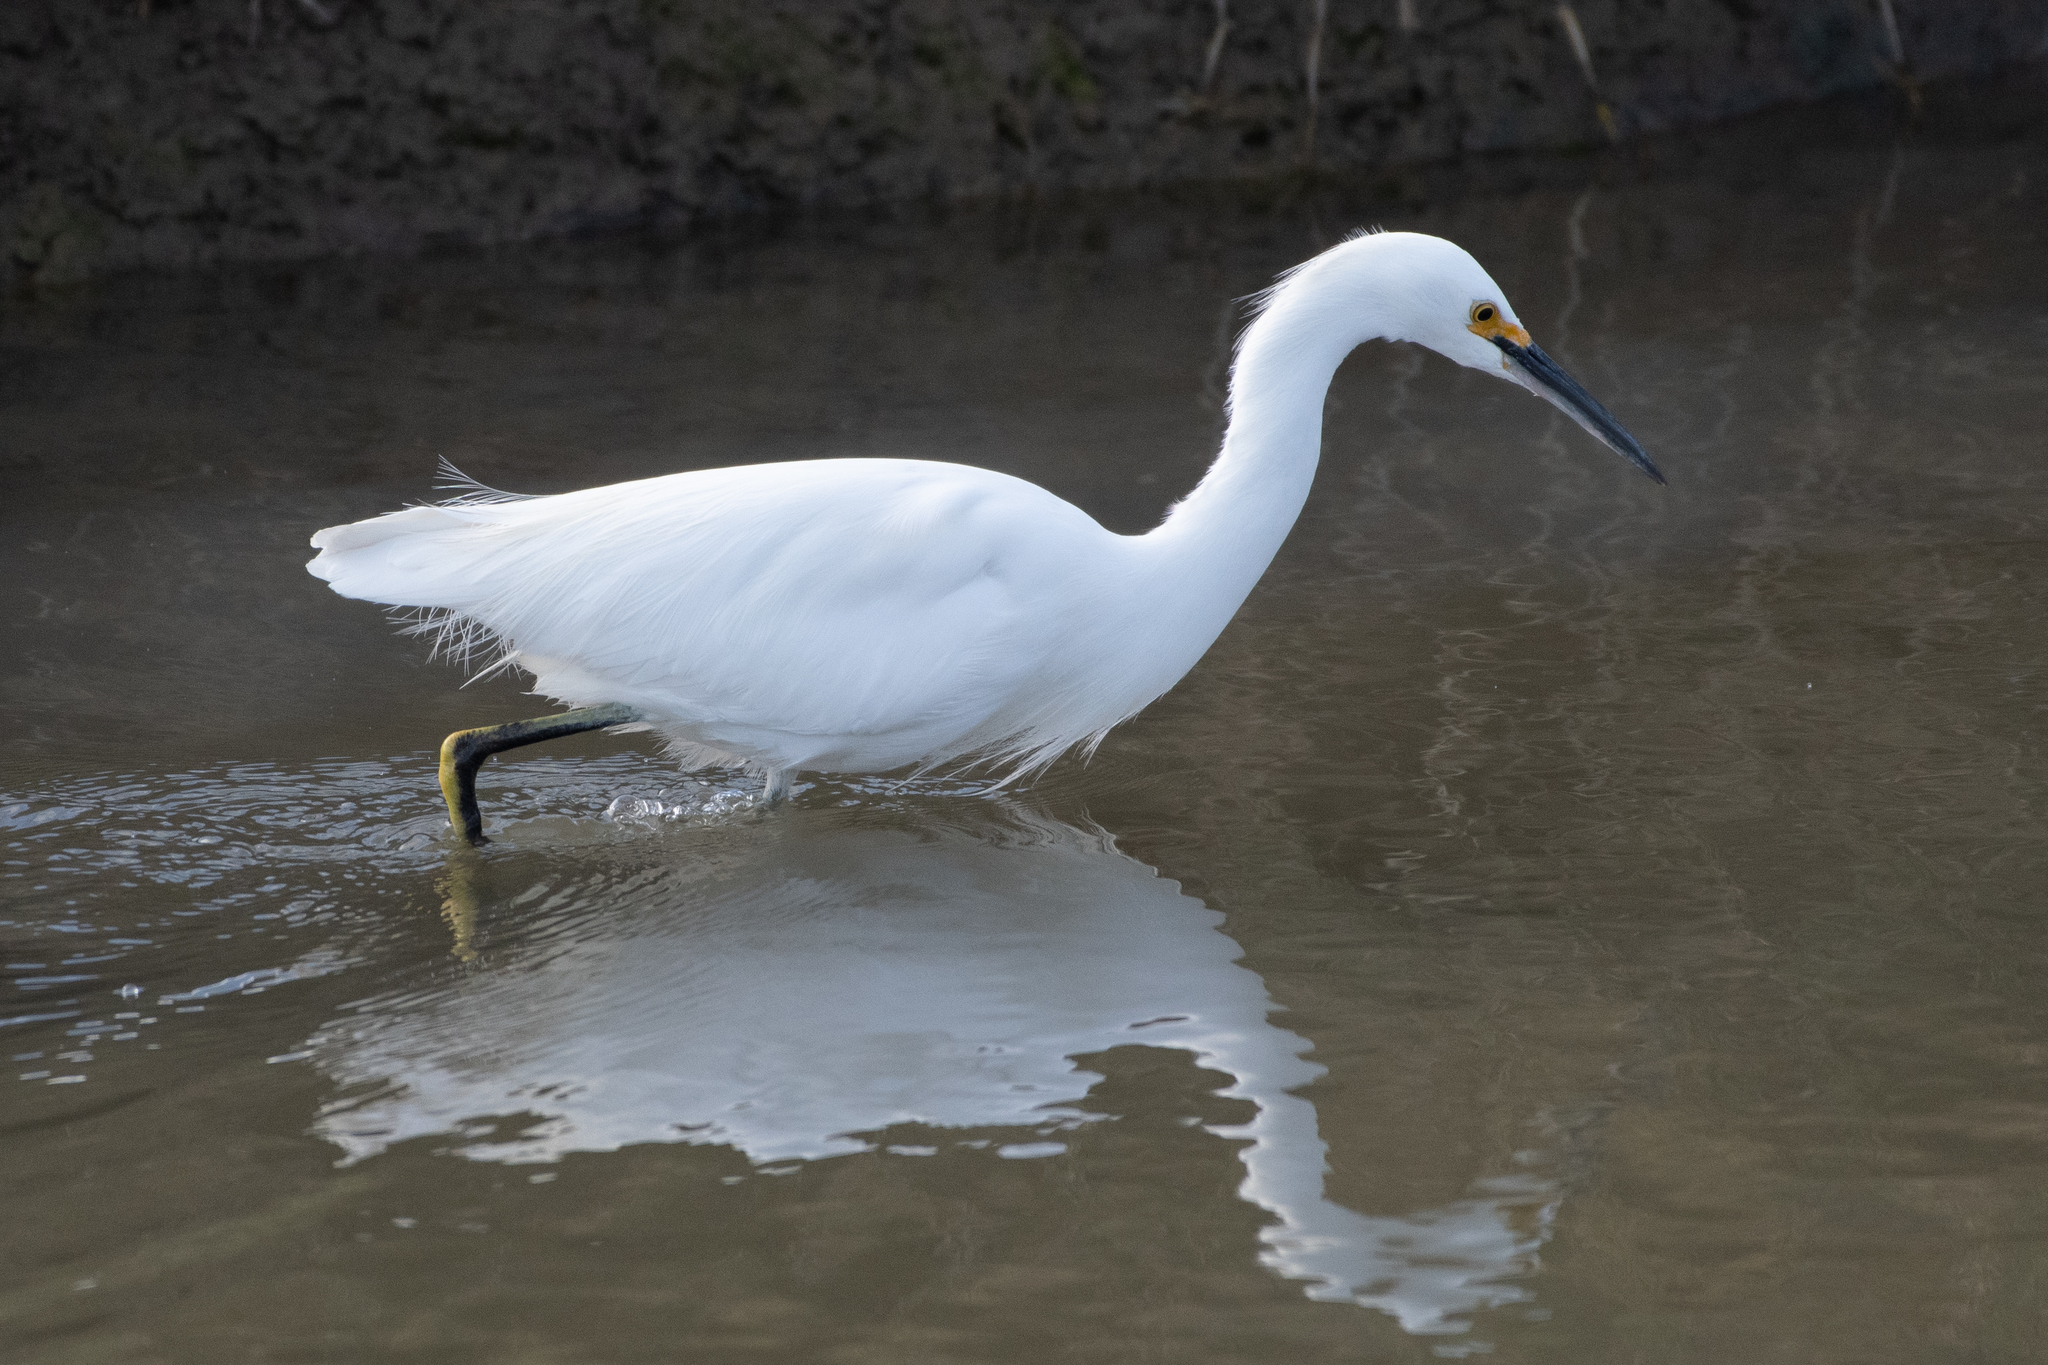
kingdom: Animalia
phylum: Chordata
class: Aves
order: Pelecaniformes
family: Ardeidae
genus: Egretta
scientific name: Egretta thula
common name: Snowy egret
